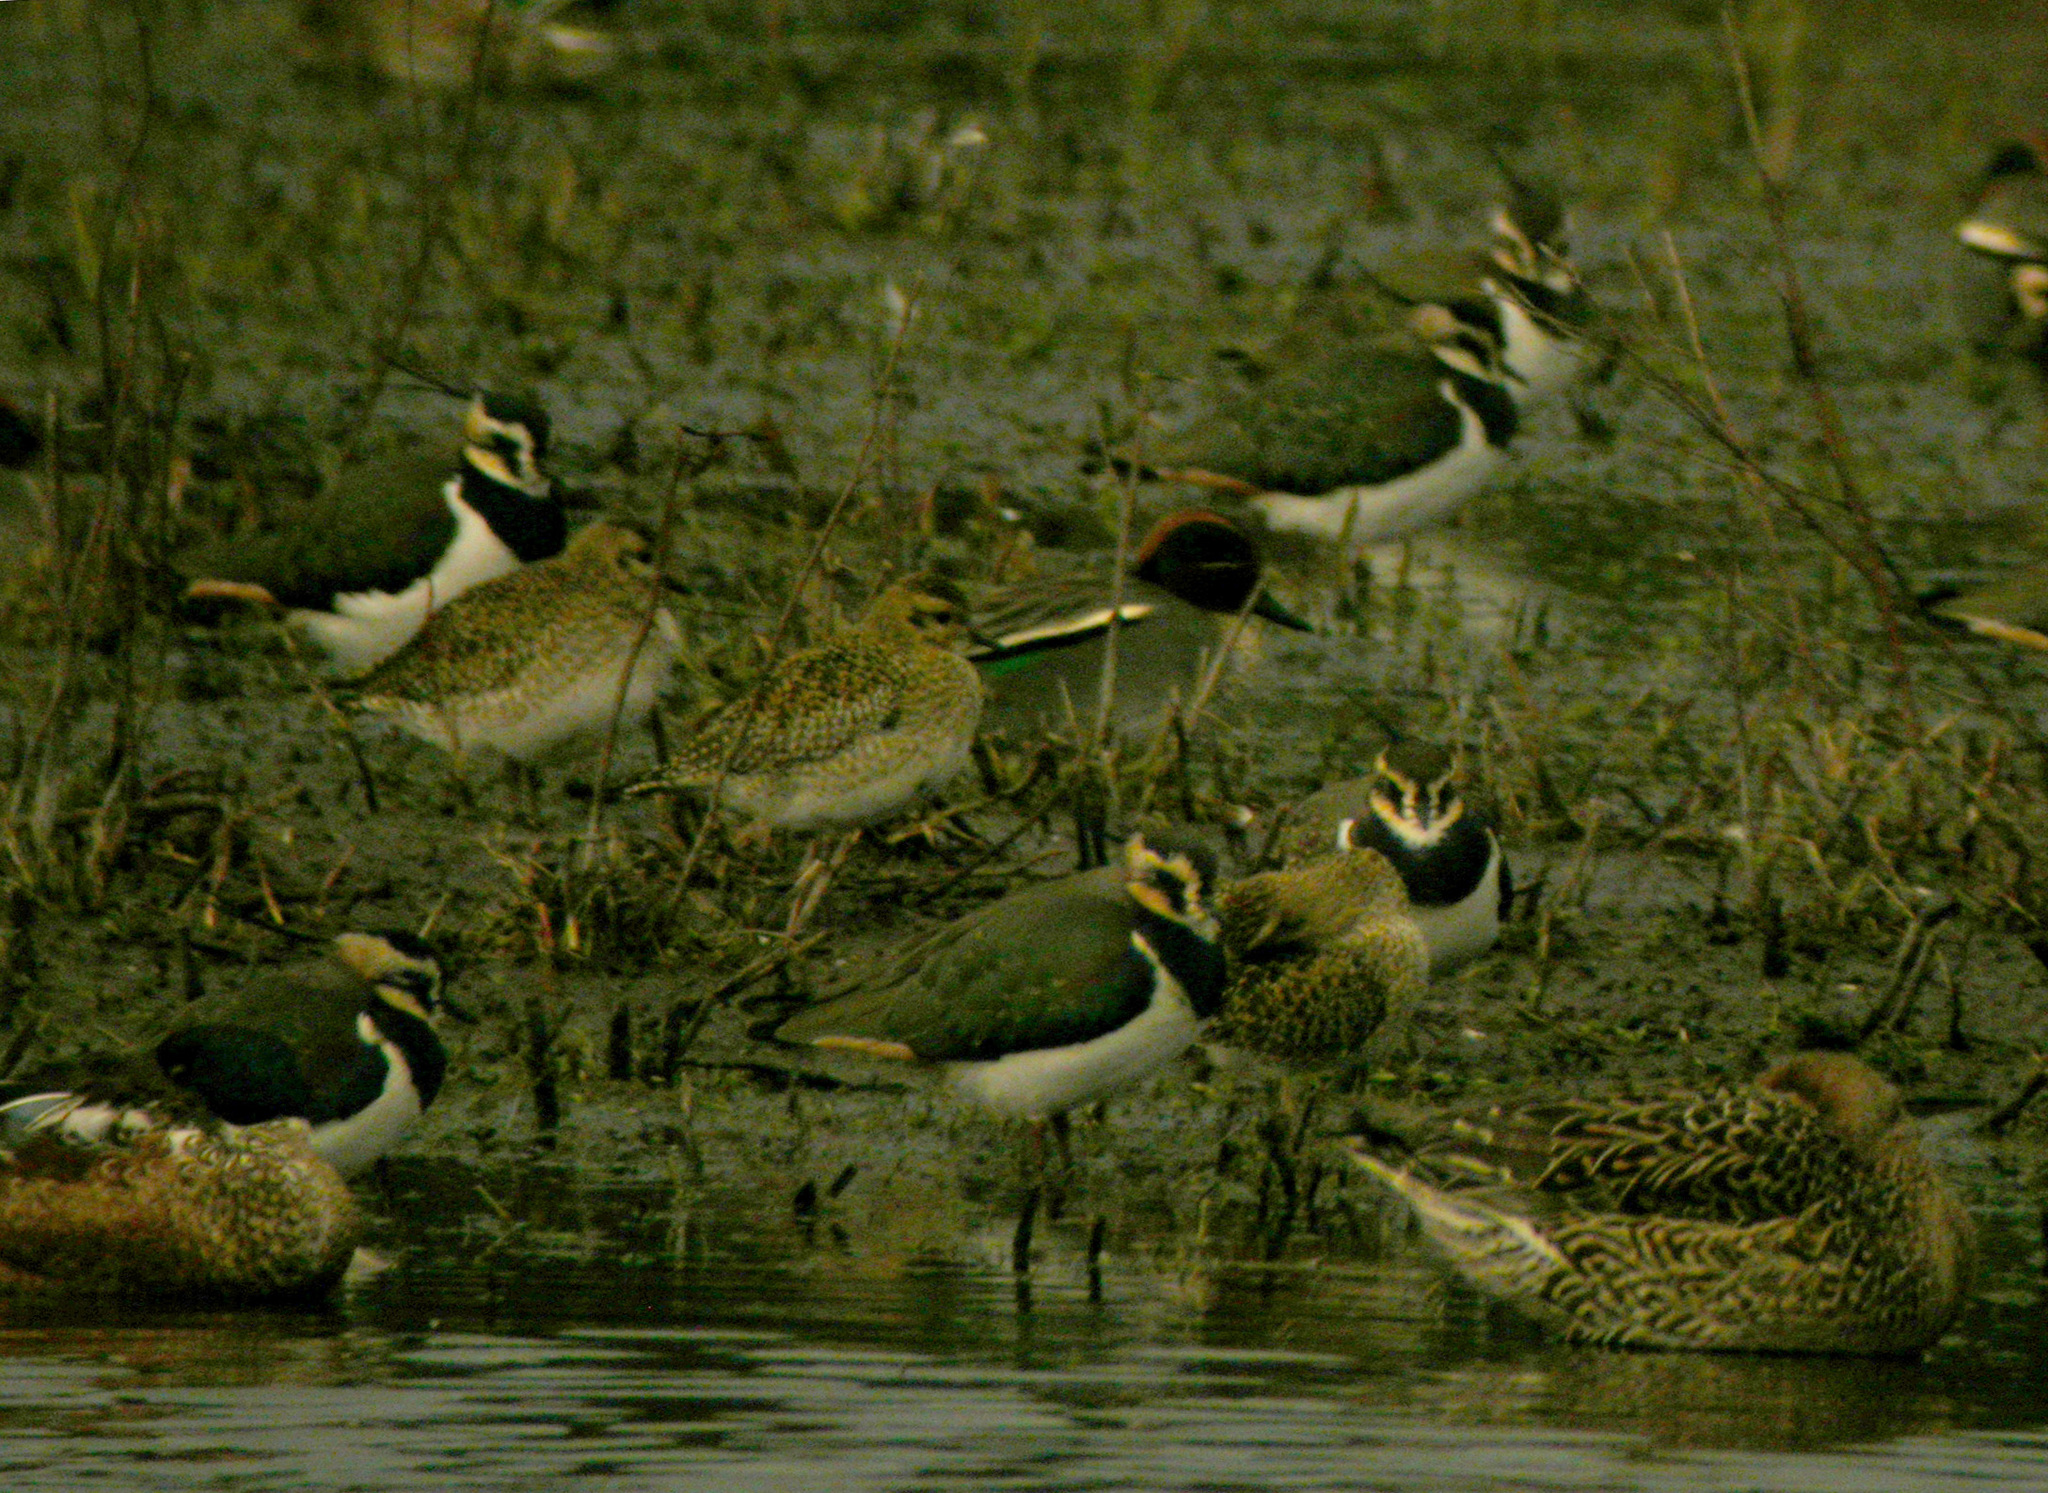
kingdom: Animalia
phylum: Chordata
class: Aves
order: Charadriiformes
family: Charadriidae
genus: Vanellus
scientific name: Vanellus vanellus
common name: Northern lapwing
